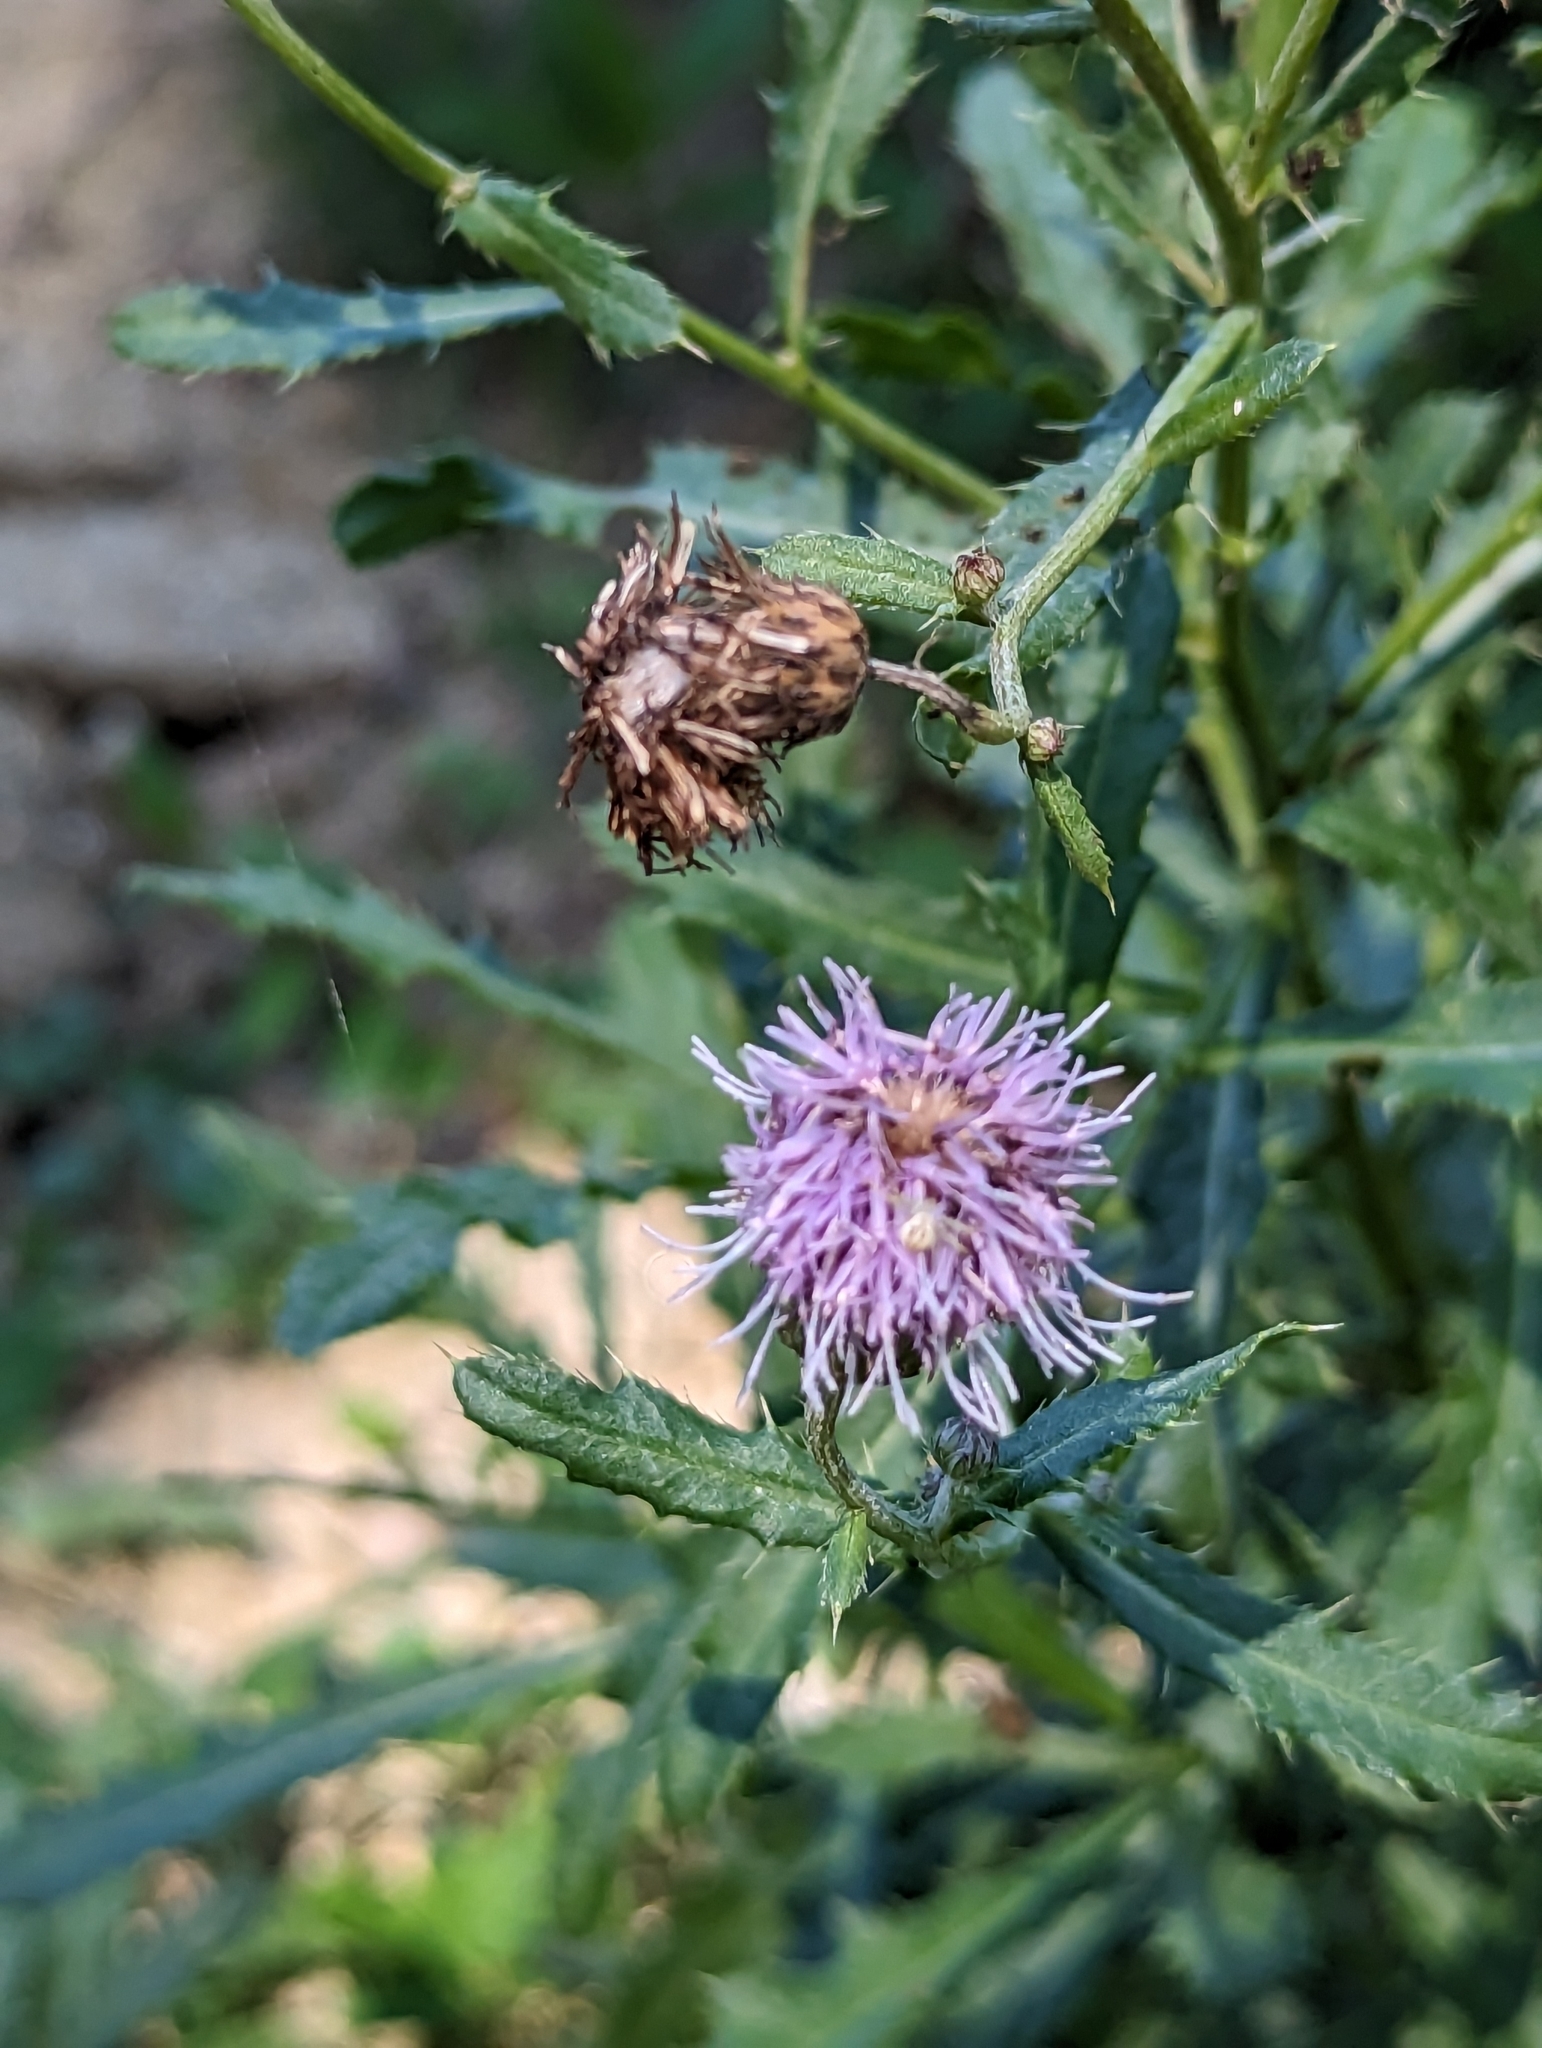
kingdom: Plantae
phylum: Tracheophyta
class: Magnoliopsida
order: Asterales
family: Asteraceae
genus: Cirsium
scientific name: Cirsium arvense
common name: Creeping thistle
